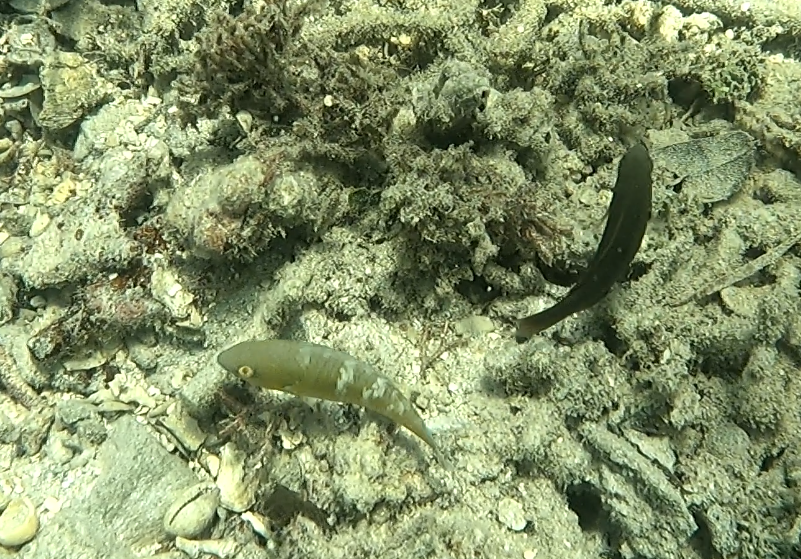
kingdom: Animalia
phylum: Chordata
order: Perciformes
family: Scaridae
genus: Scarus
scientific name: Scarus ghobban
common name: Blue-barred parrotfish
